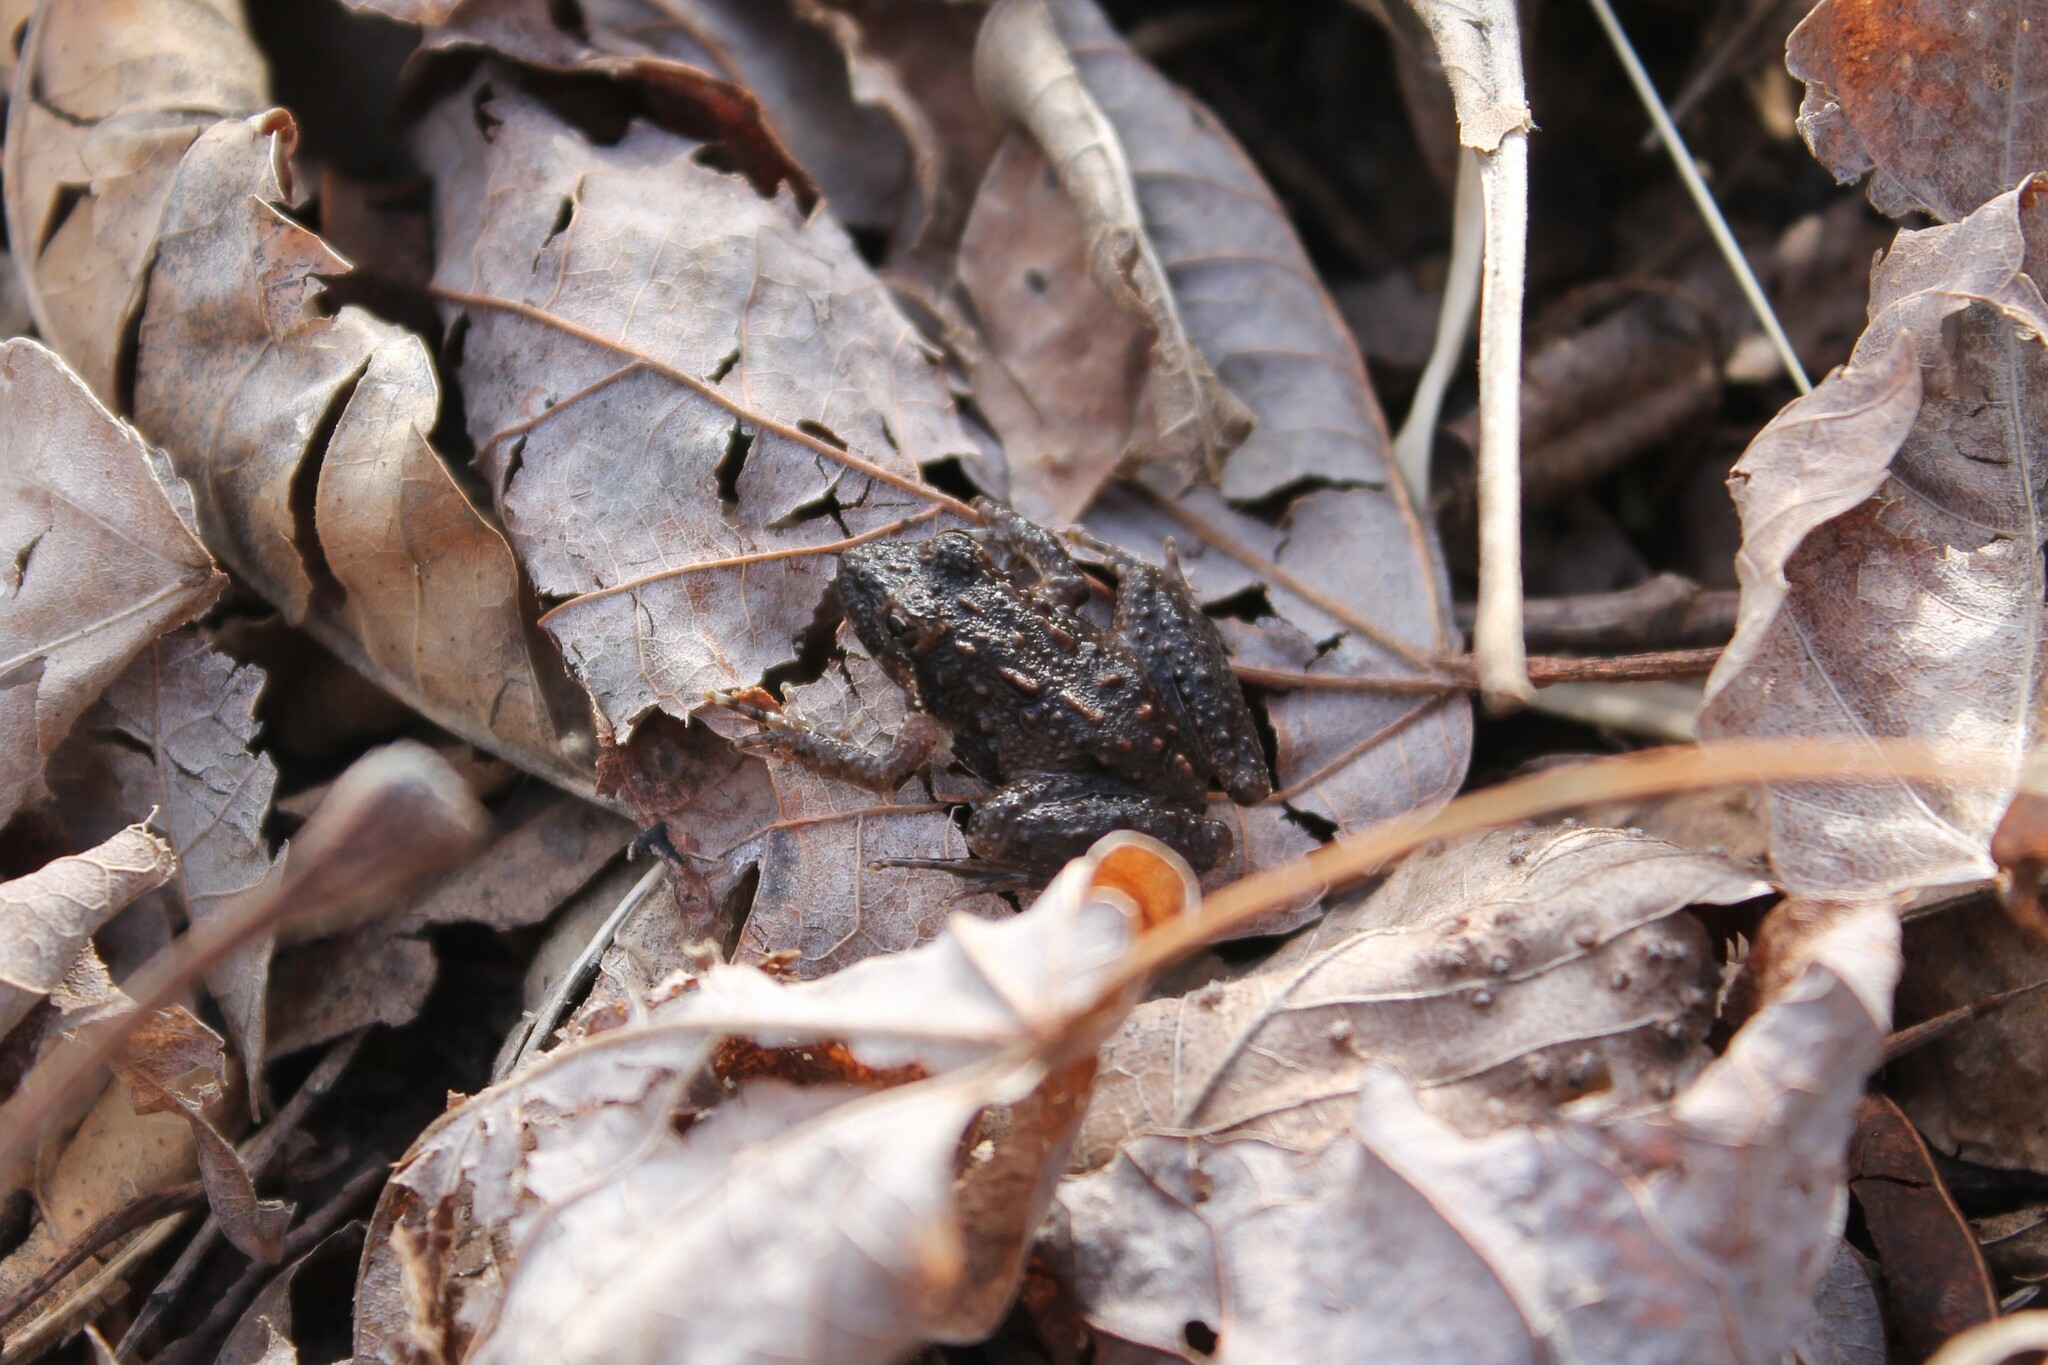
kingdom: Animalia
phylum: Chordata
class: Amphibia
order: Anura
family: Hylidae
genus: Acris
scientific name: Acris crepitans
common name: Northern cricket frog
